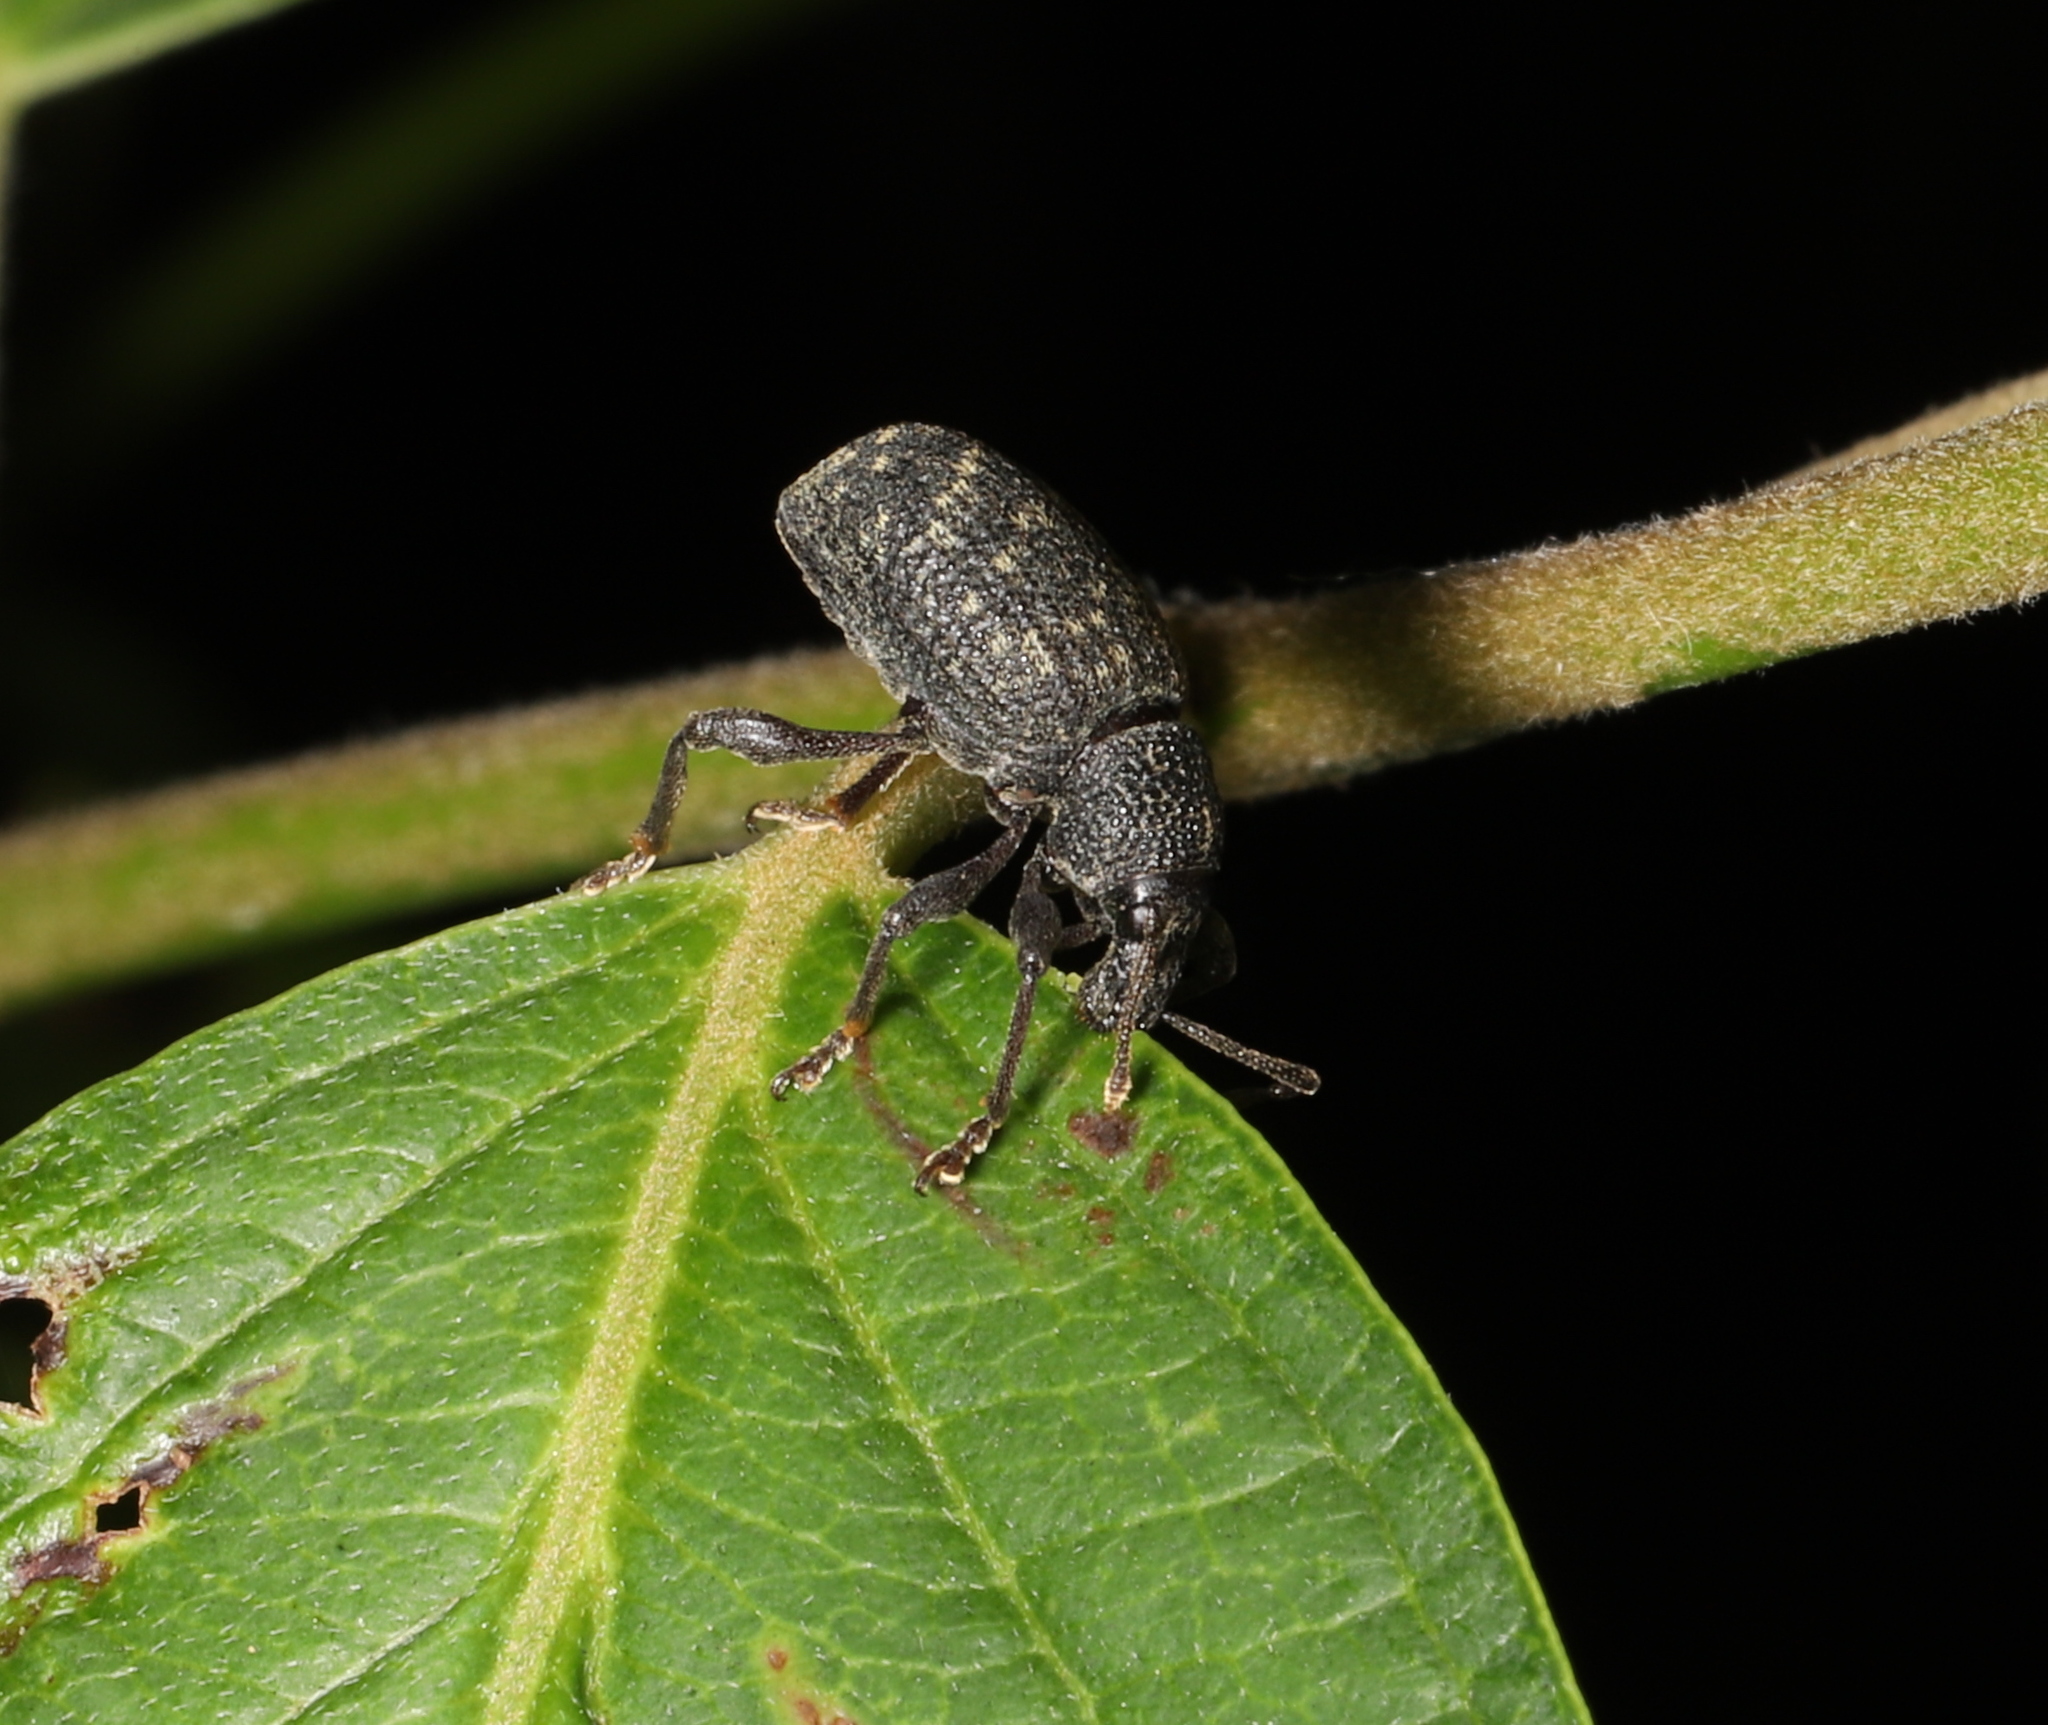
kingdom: Animalia
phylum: Arthropoda
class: Insecta
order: Coleoptera
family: Curculionidae
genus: Otiorhynchus
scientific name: Otiorhynchus sulcatus
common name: Black vine weevil
